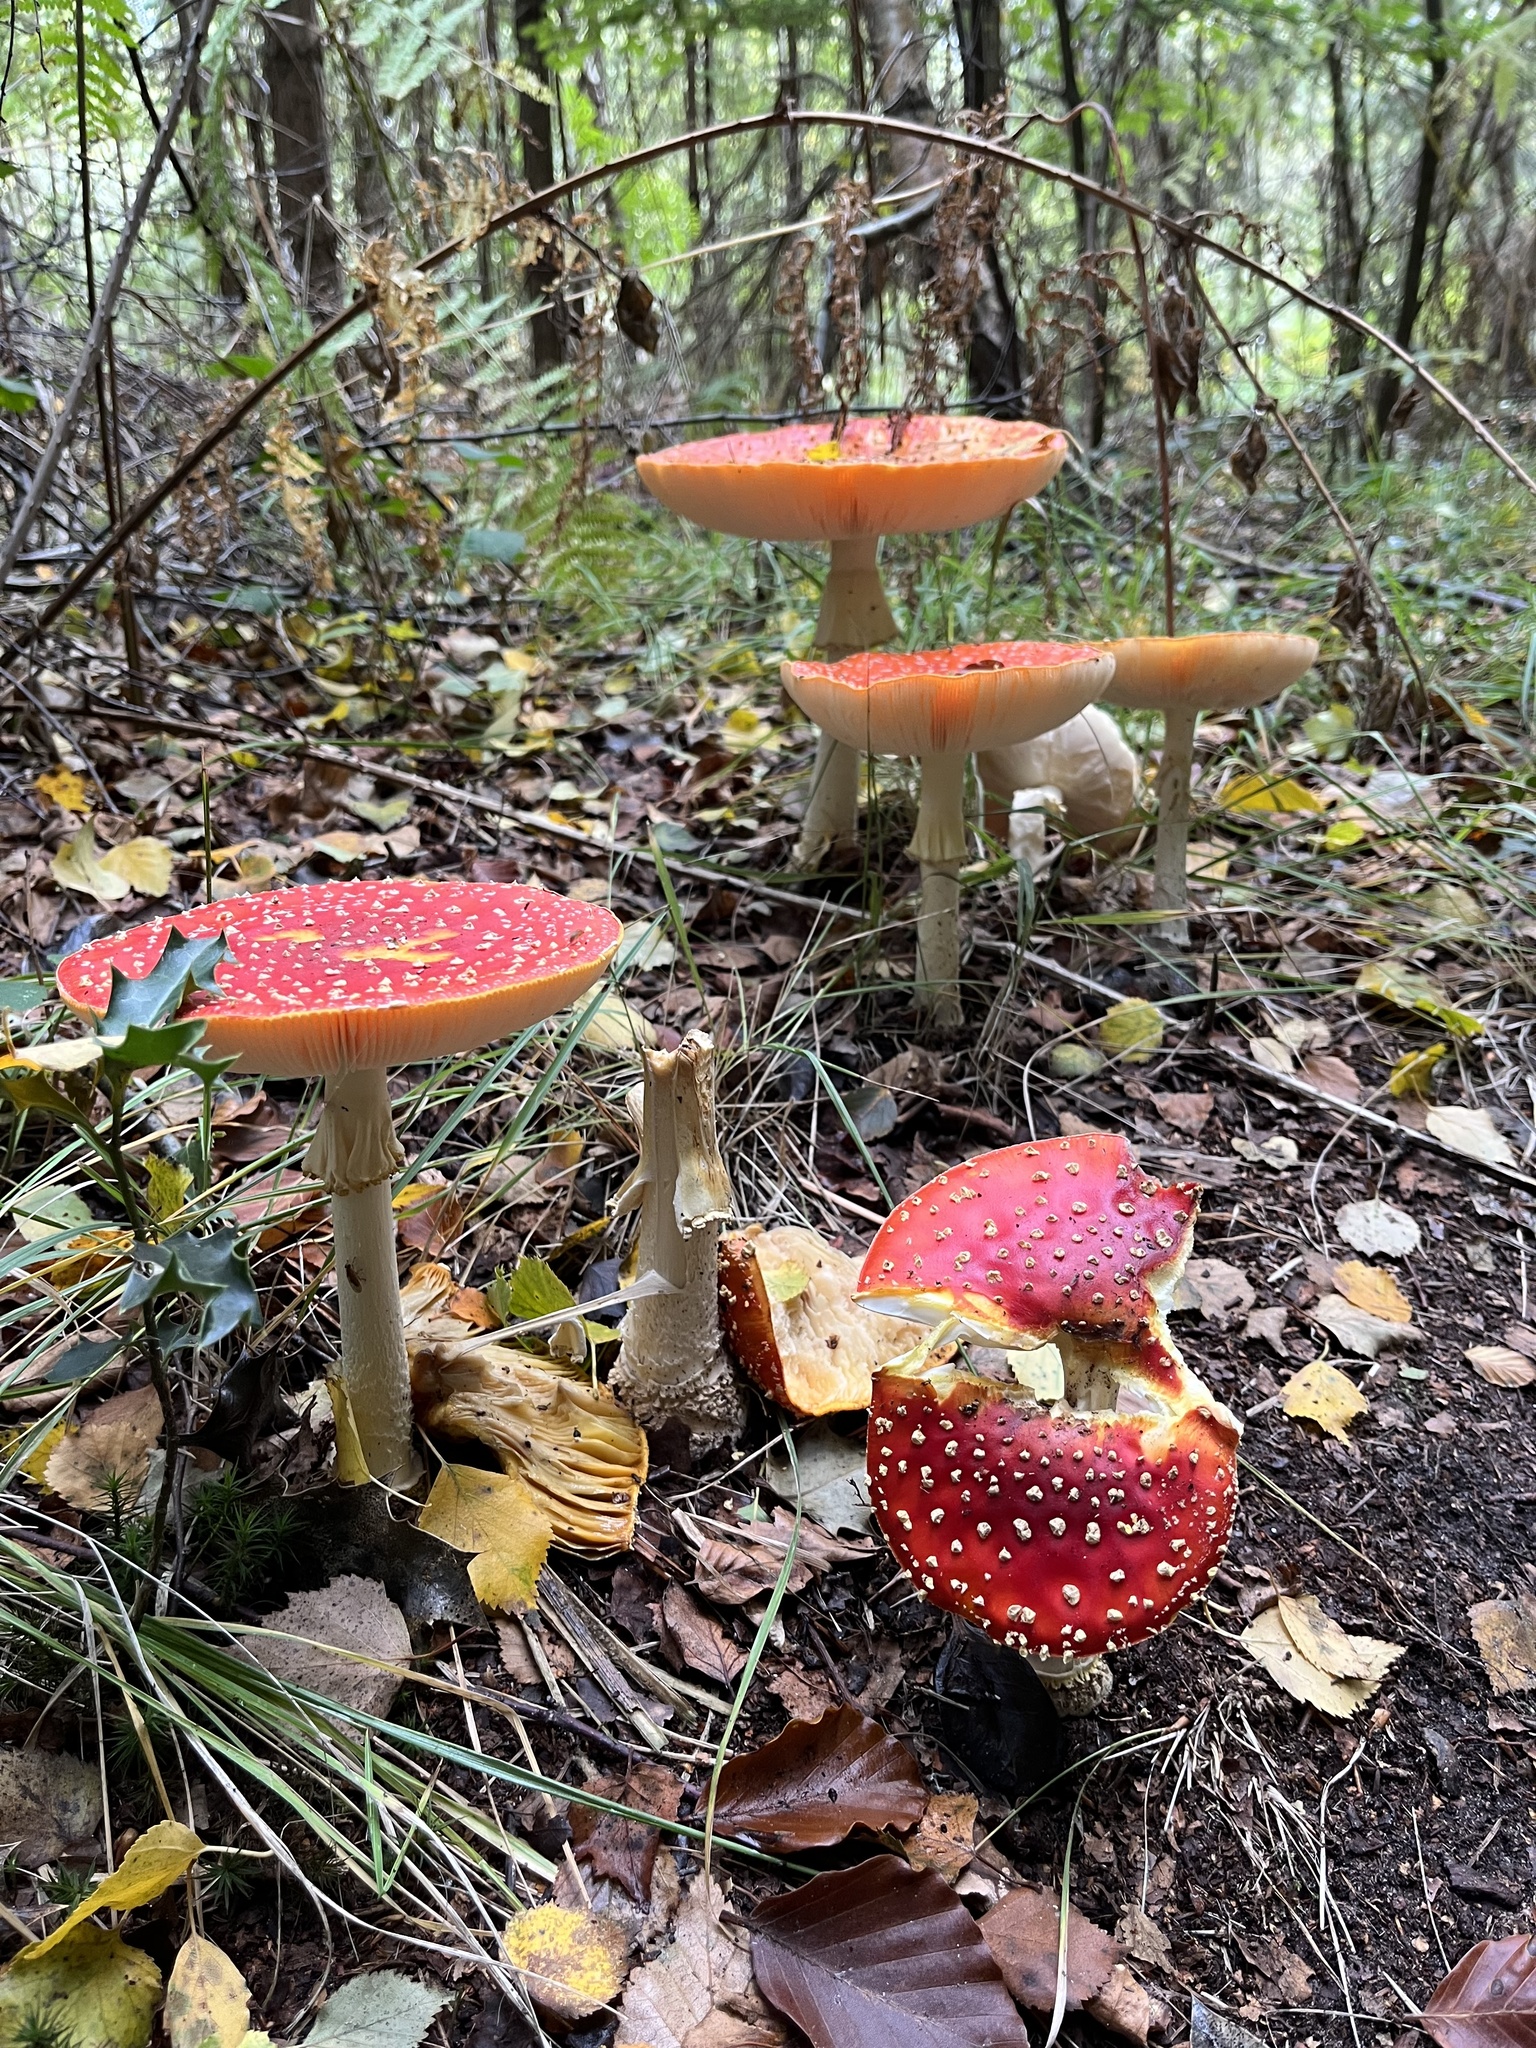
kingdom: Fungi
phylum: Basidiomycota
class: Agaricomycetes
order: Agaricales
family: Amanitaceae
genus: Amanita
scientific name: Amanita muscaria
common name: Fly agaric
